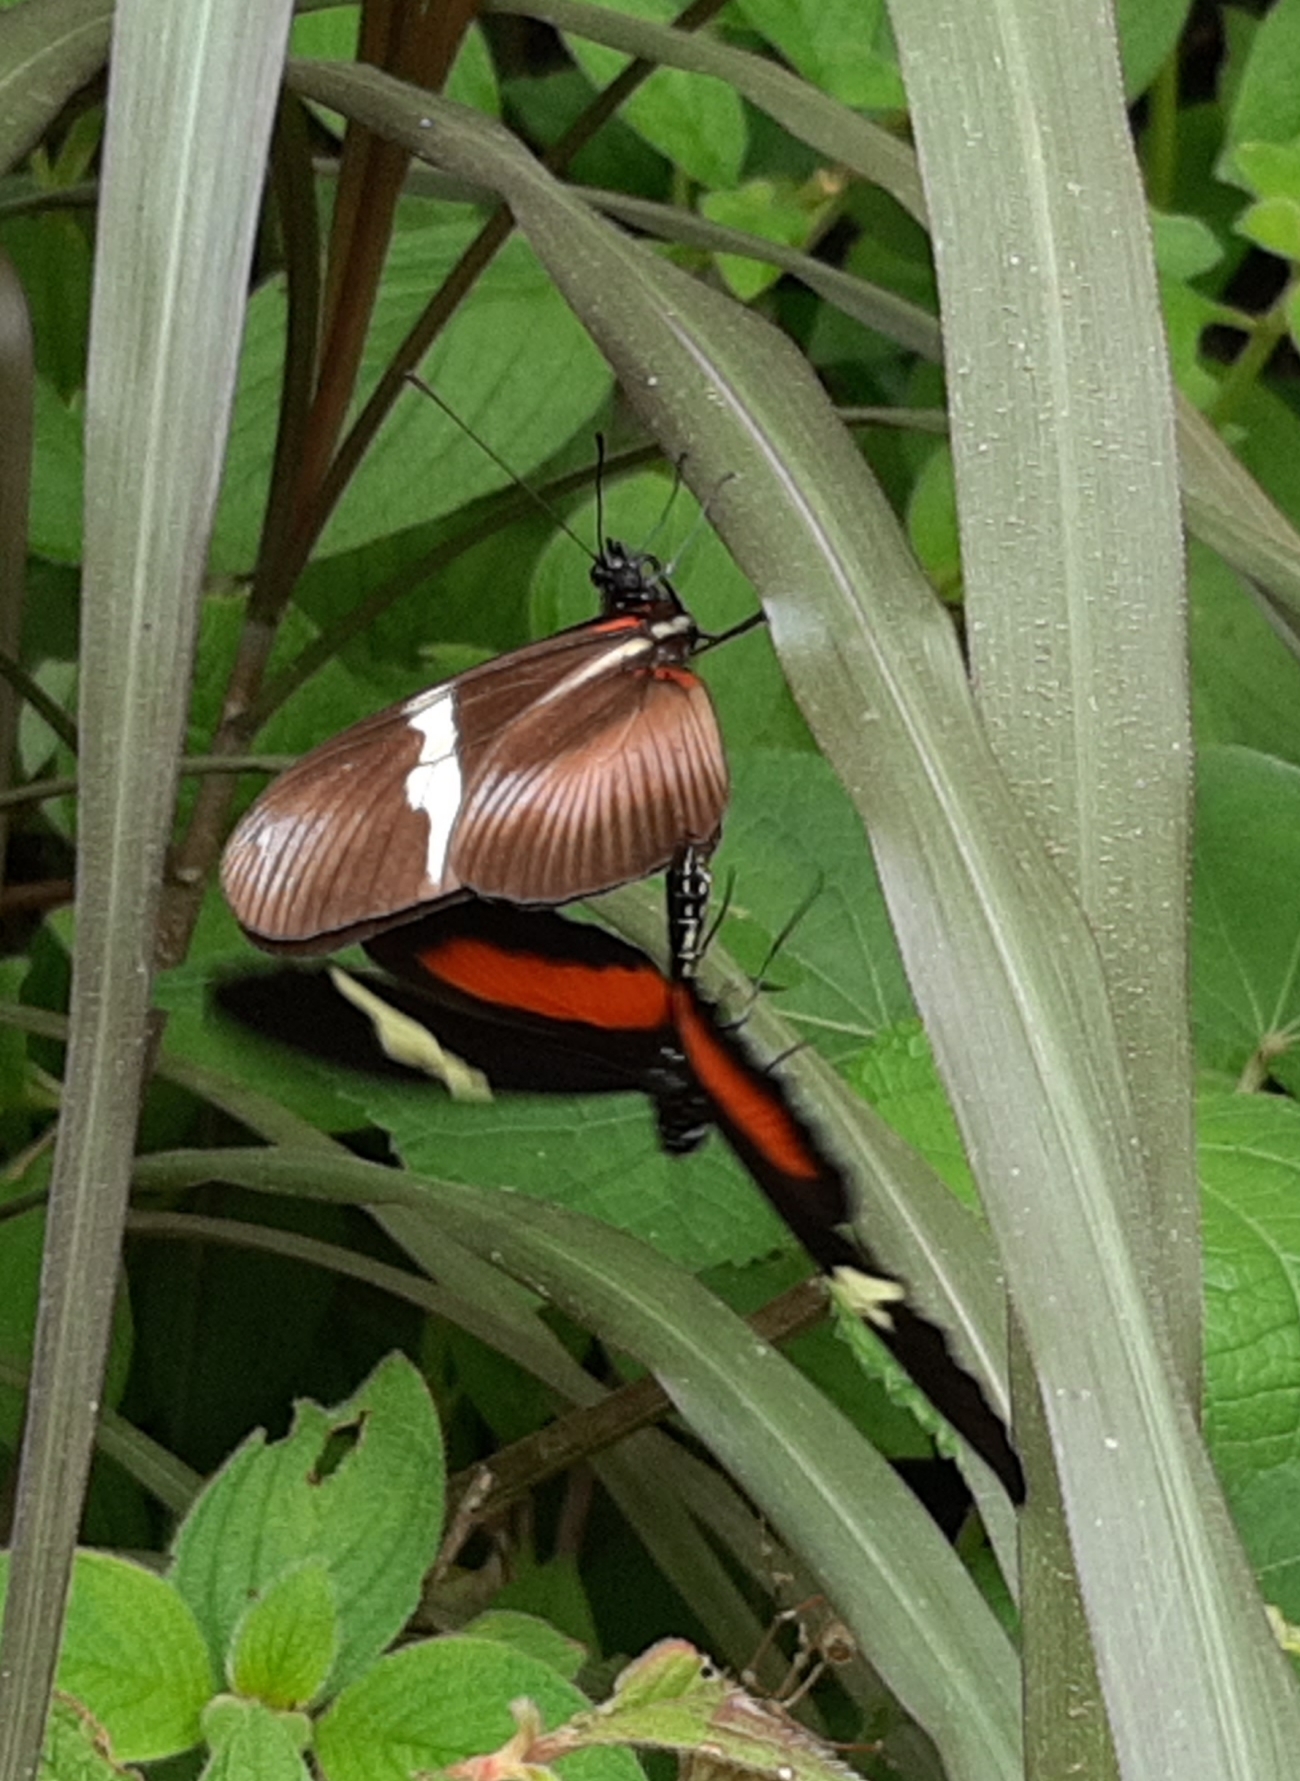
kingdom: Animalia
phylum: Arthropoda
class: Insecta
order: Lepidoptera
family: Nymphalidae
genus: Heliconius
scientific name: Heliconius clysonymus
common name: Clysonymus longwing
